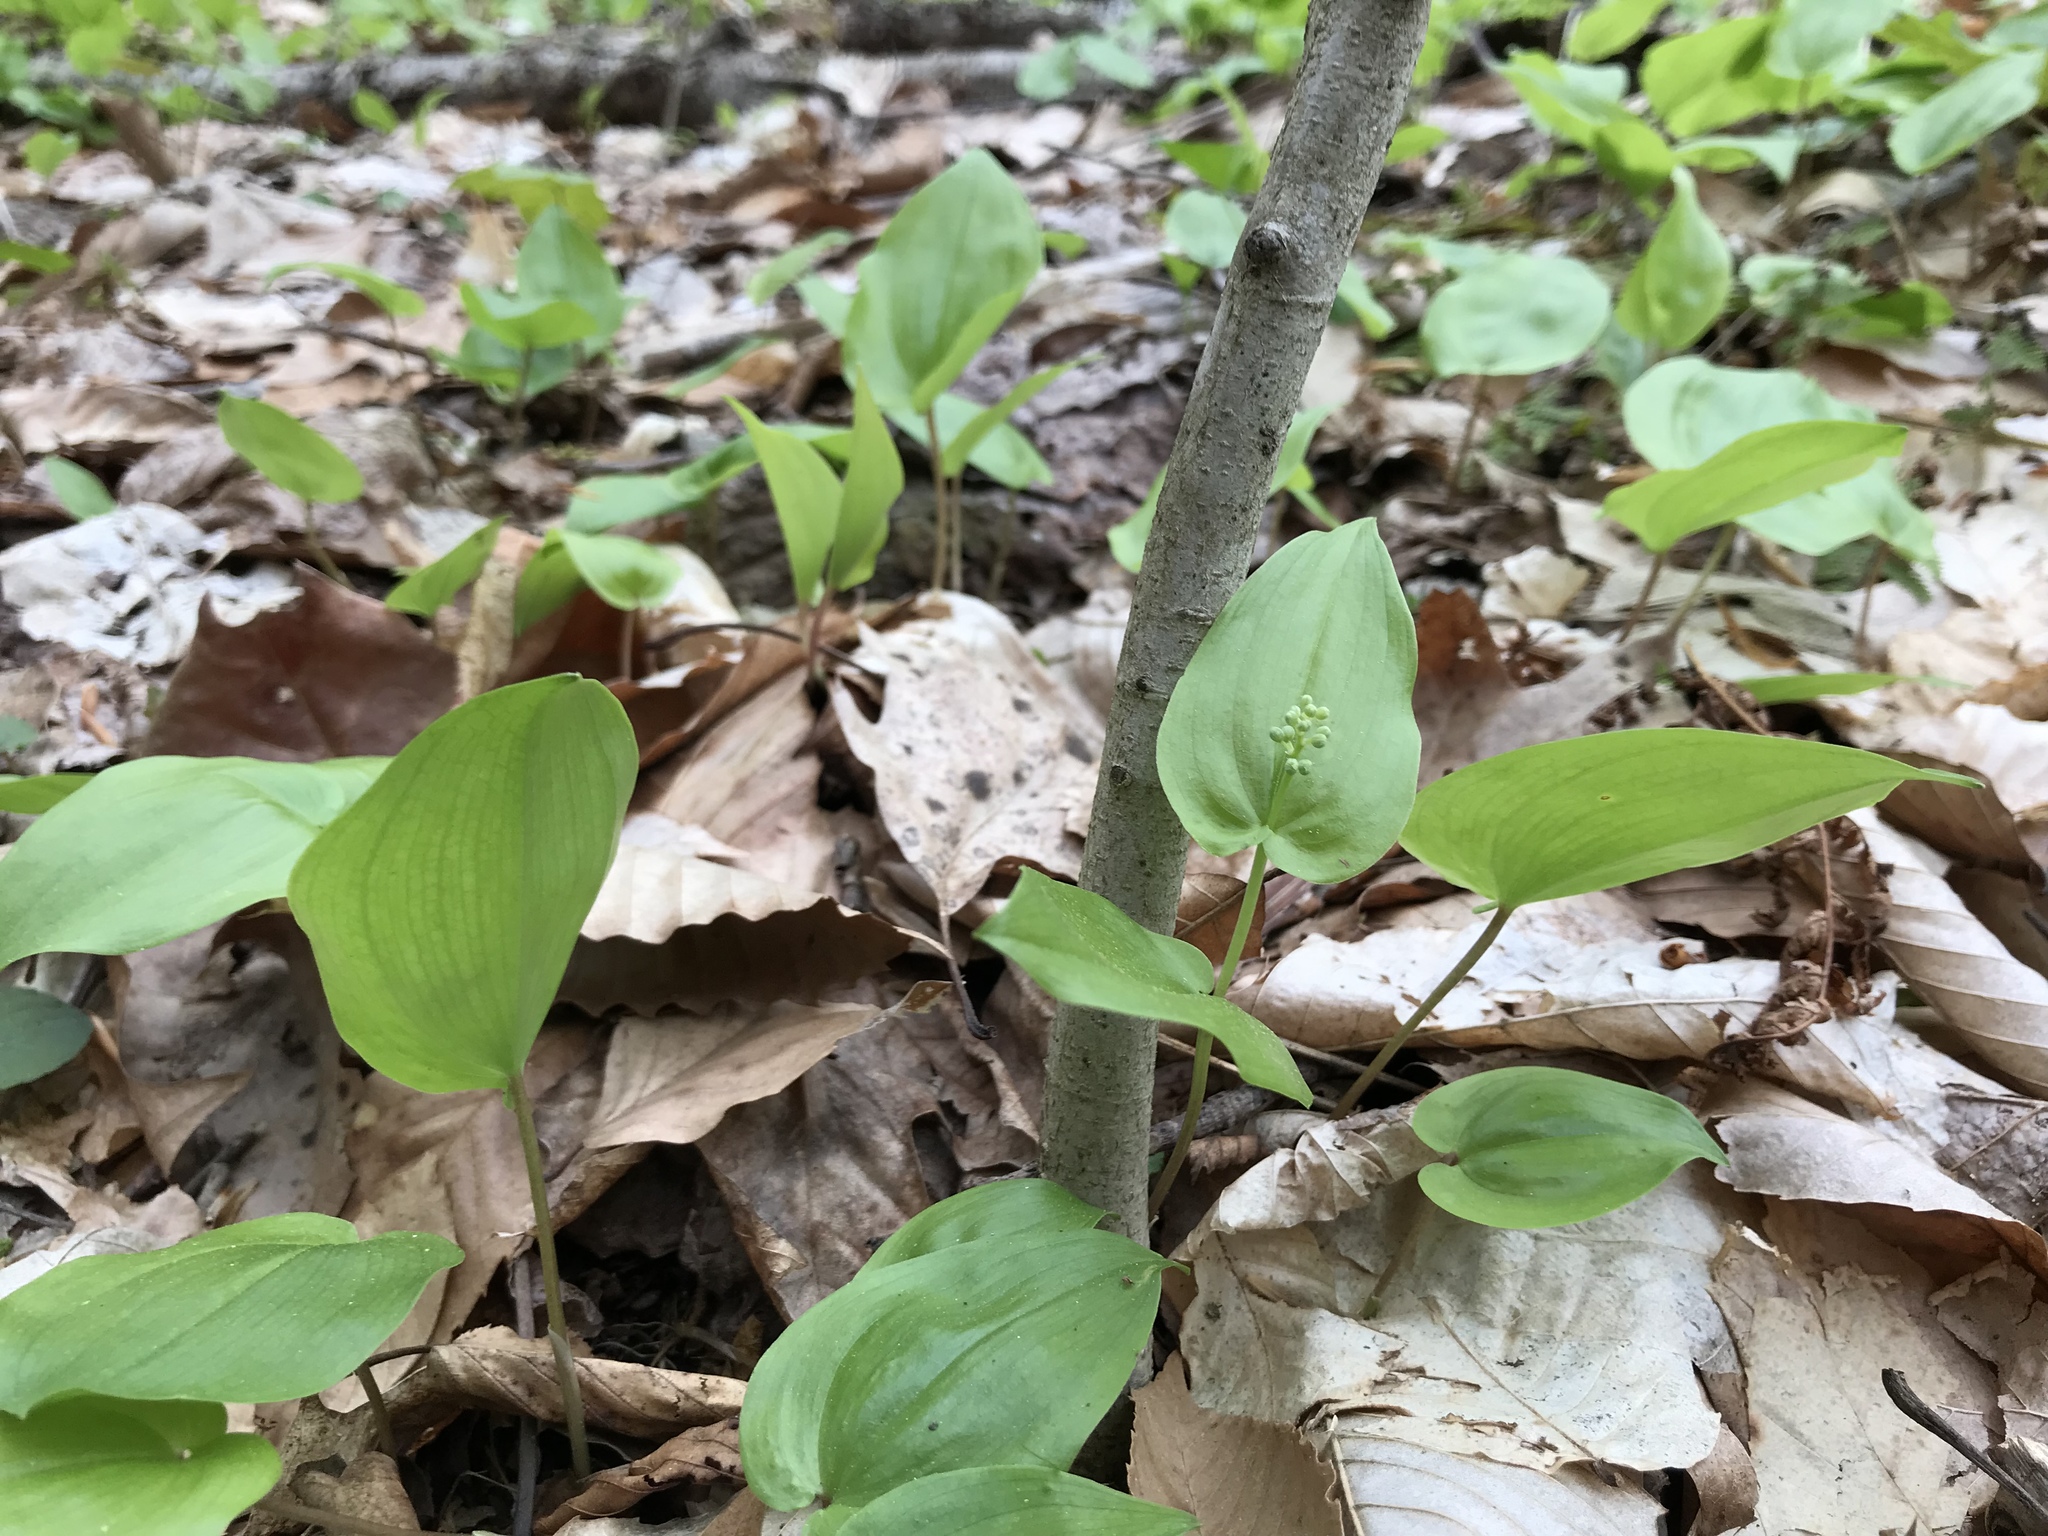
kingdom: Plantae
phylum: Tracheophyta
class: Liliopsida
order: Asparagales
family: Asparagaceae
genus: Maianthemum
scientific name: Maianthemum canadense
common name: False lily-of-the-valley
